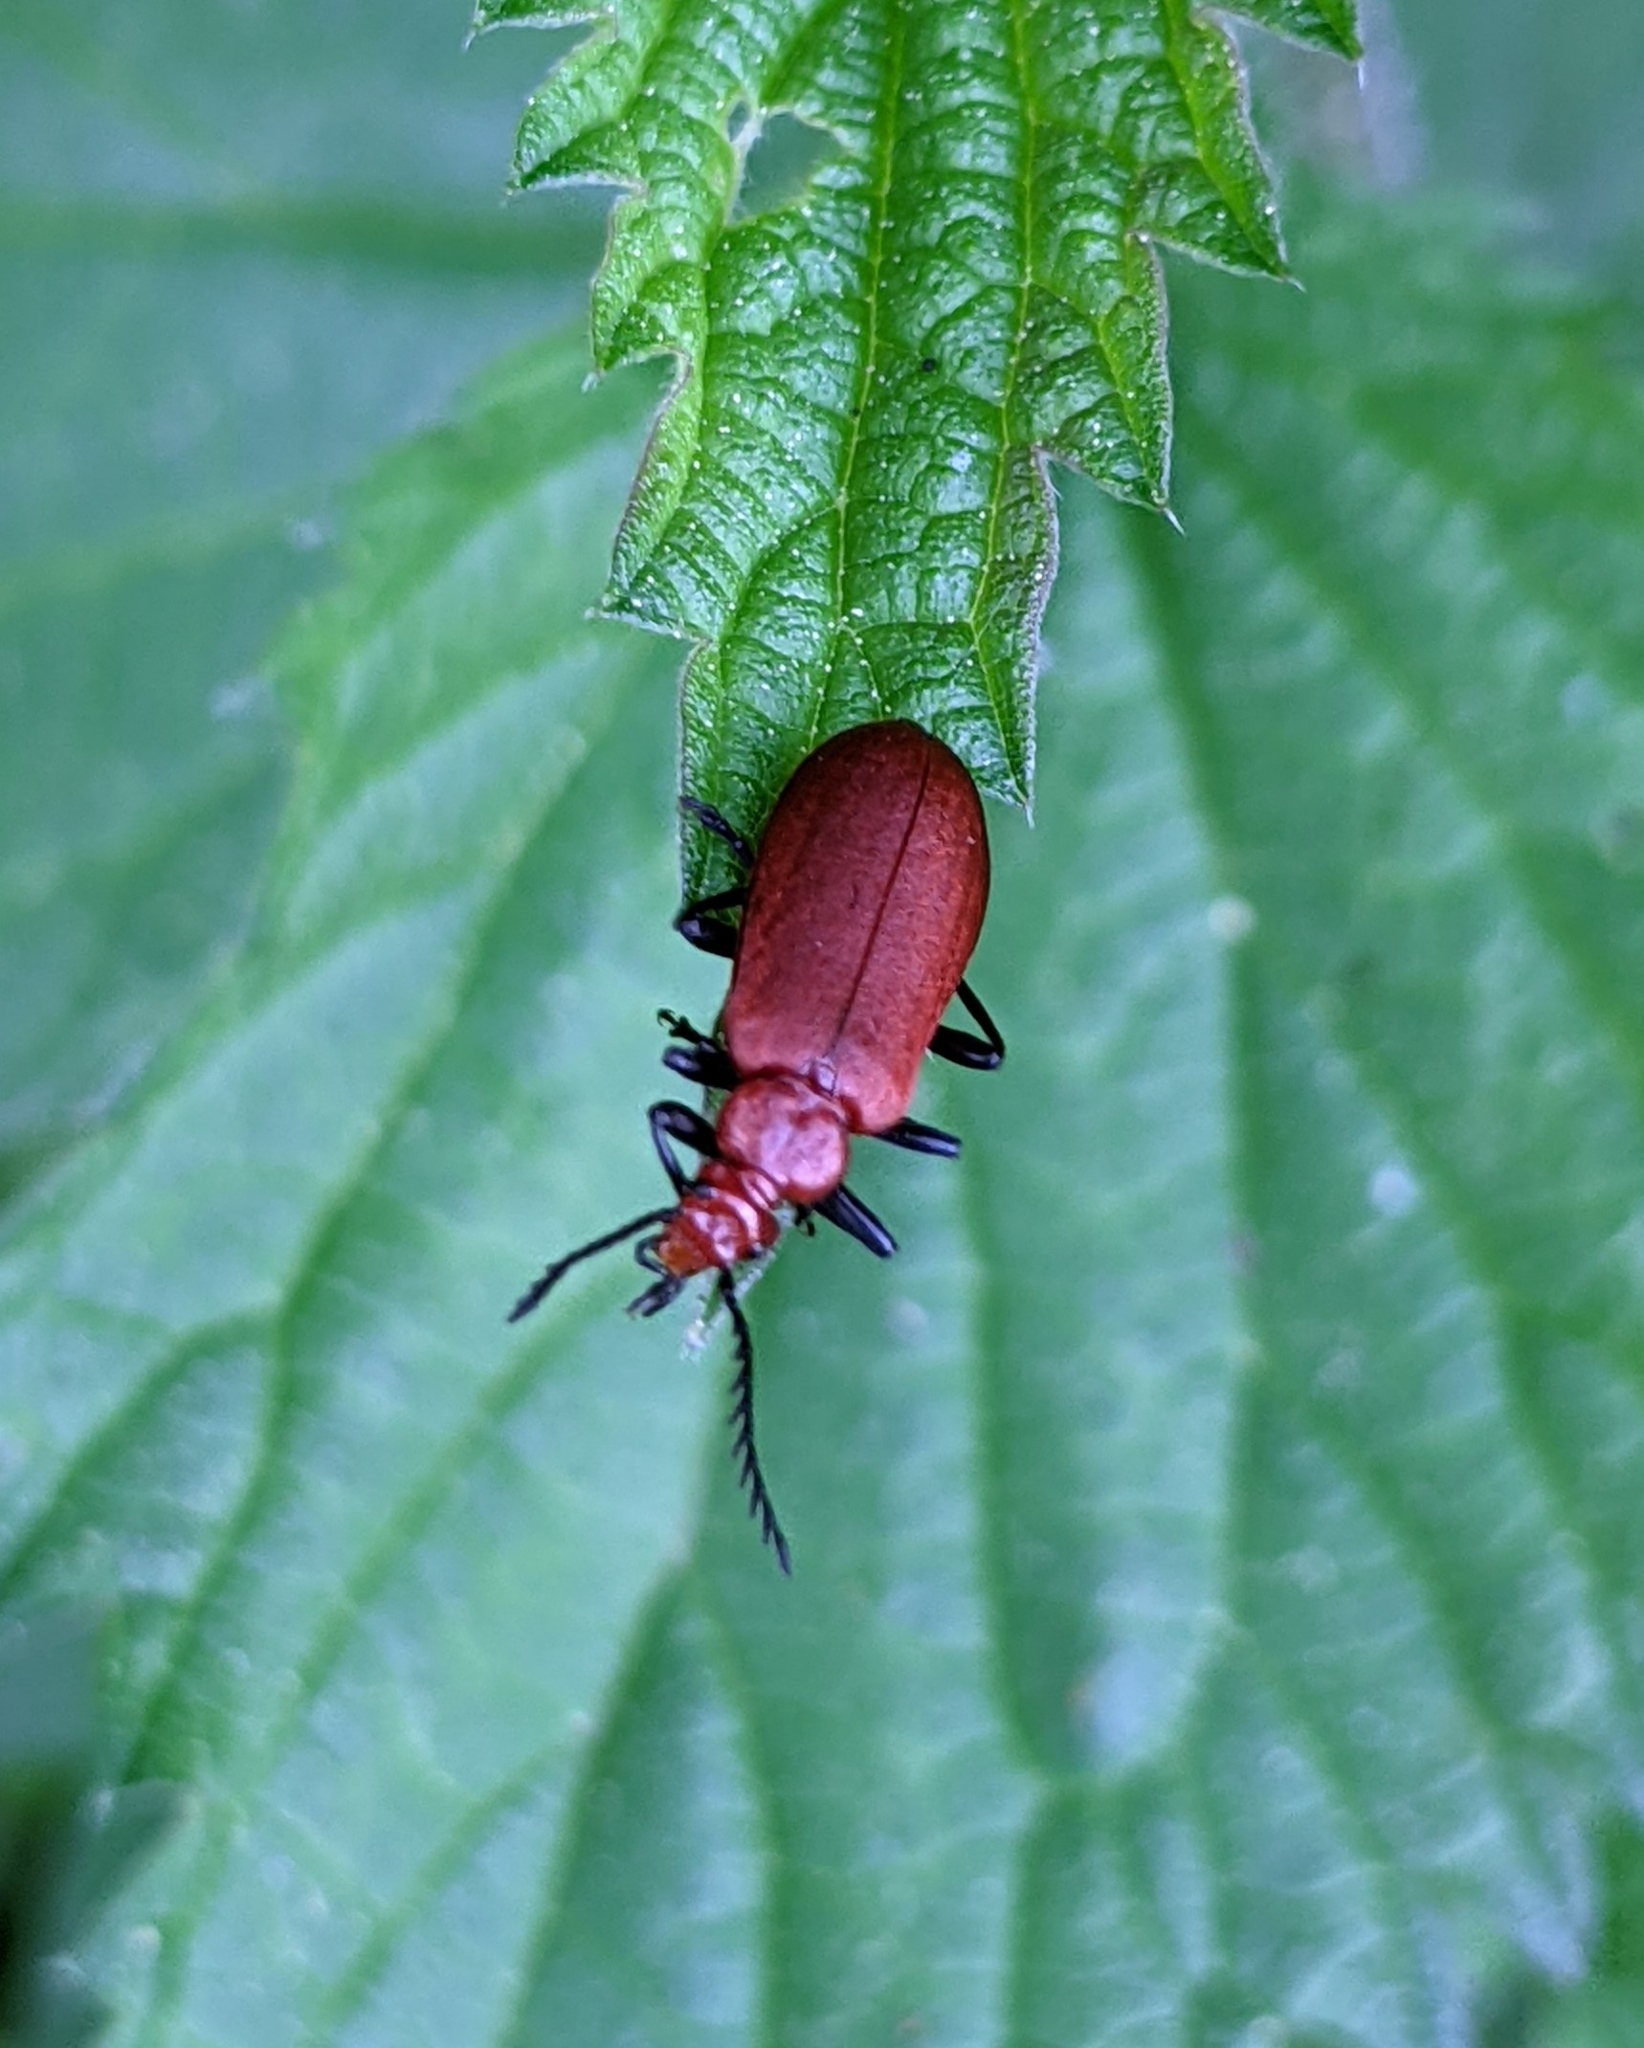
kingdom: Animalia
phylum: Arthropoda
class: Insecta
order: Coleoptera
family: Pyrochroidae
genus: Pyrochroa
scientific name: Pyrochroa serraticornis
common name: Red-headed cardinal beetle
